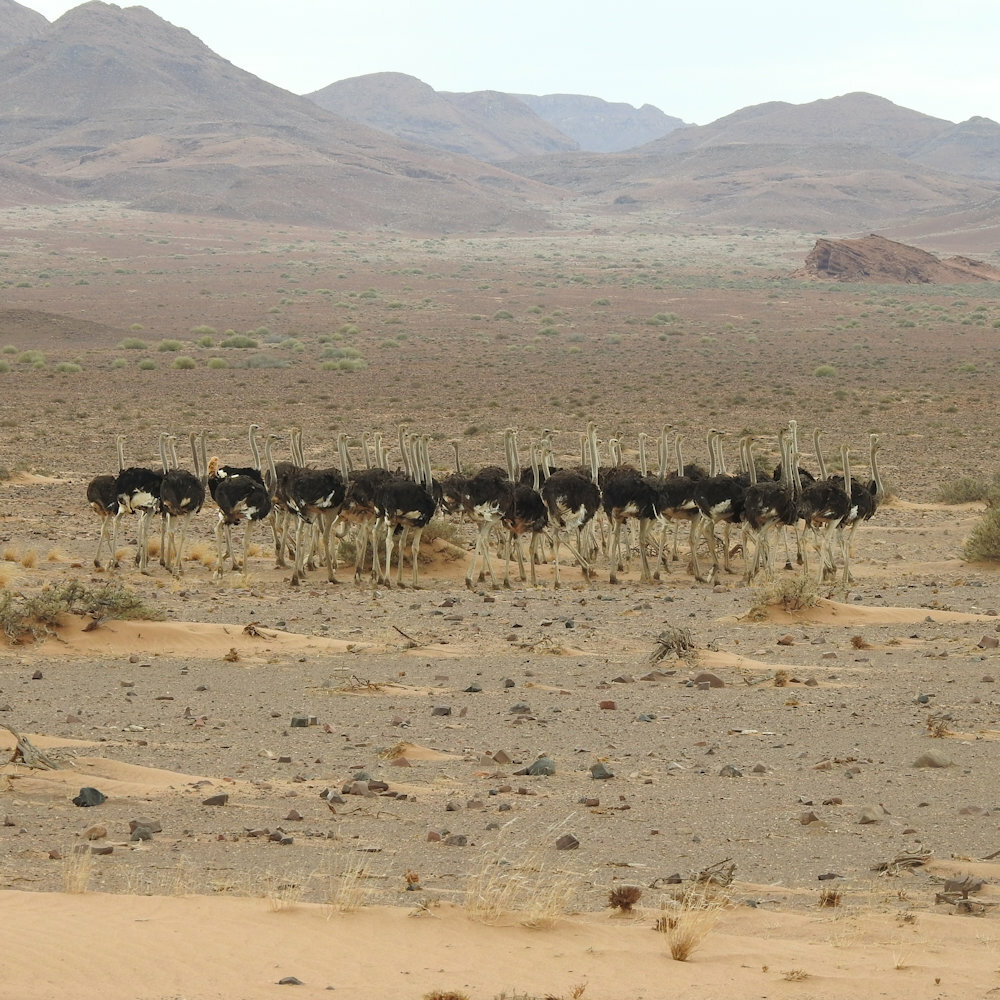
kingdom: Animalia
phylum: Chordata
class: Aves
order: Struthioniformes
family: Struthionidae
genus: Struthio
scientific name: Struthio camelus
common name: Common ostrich
